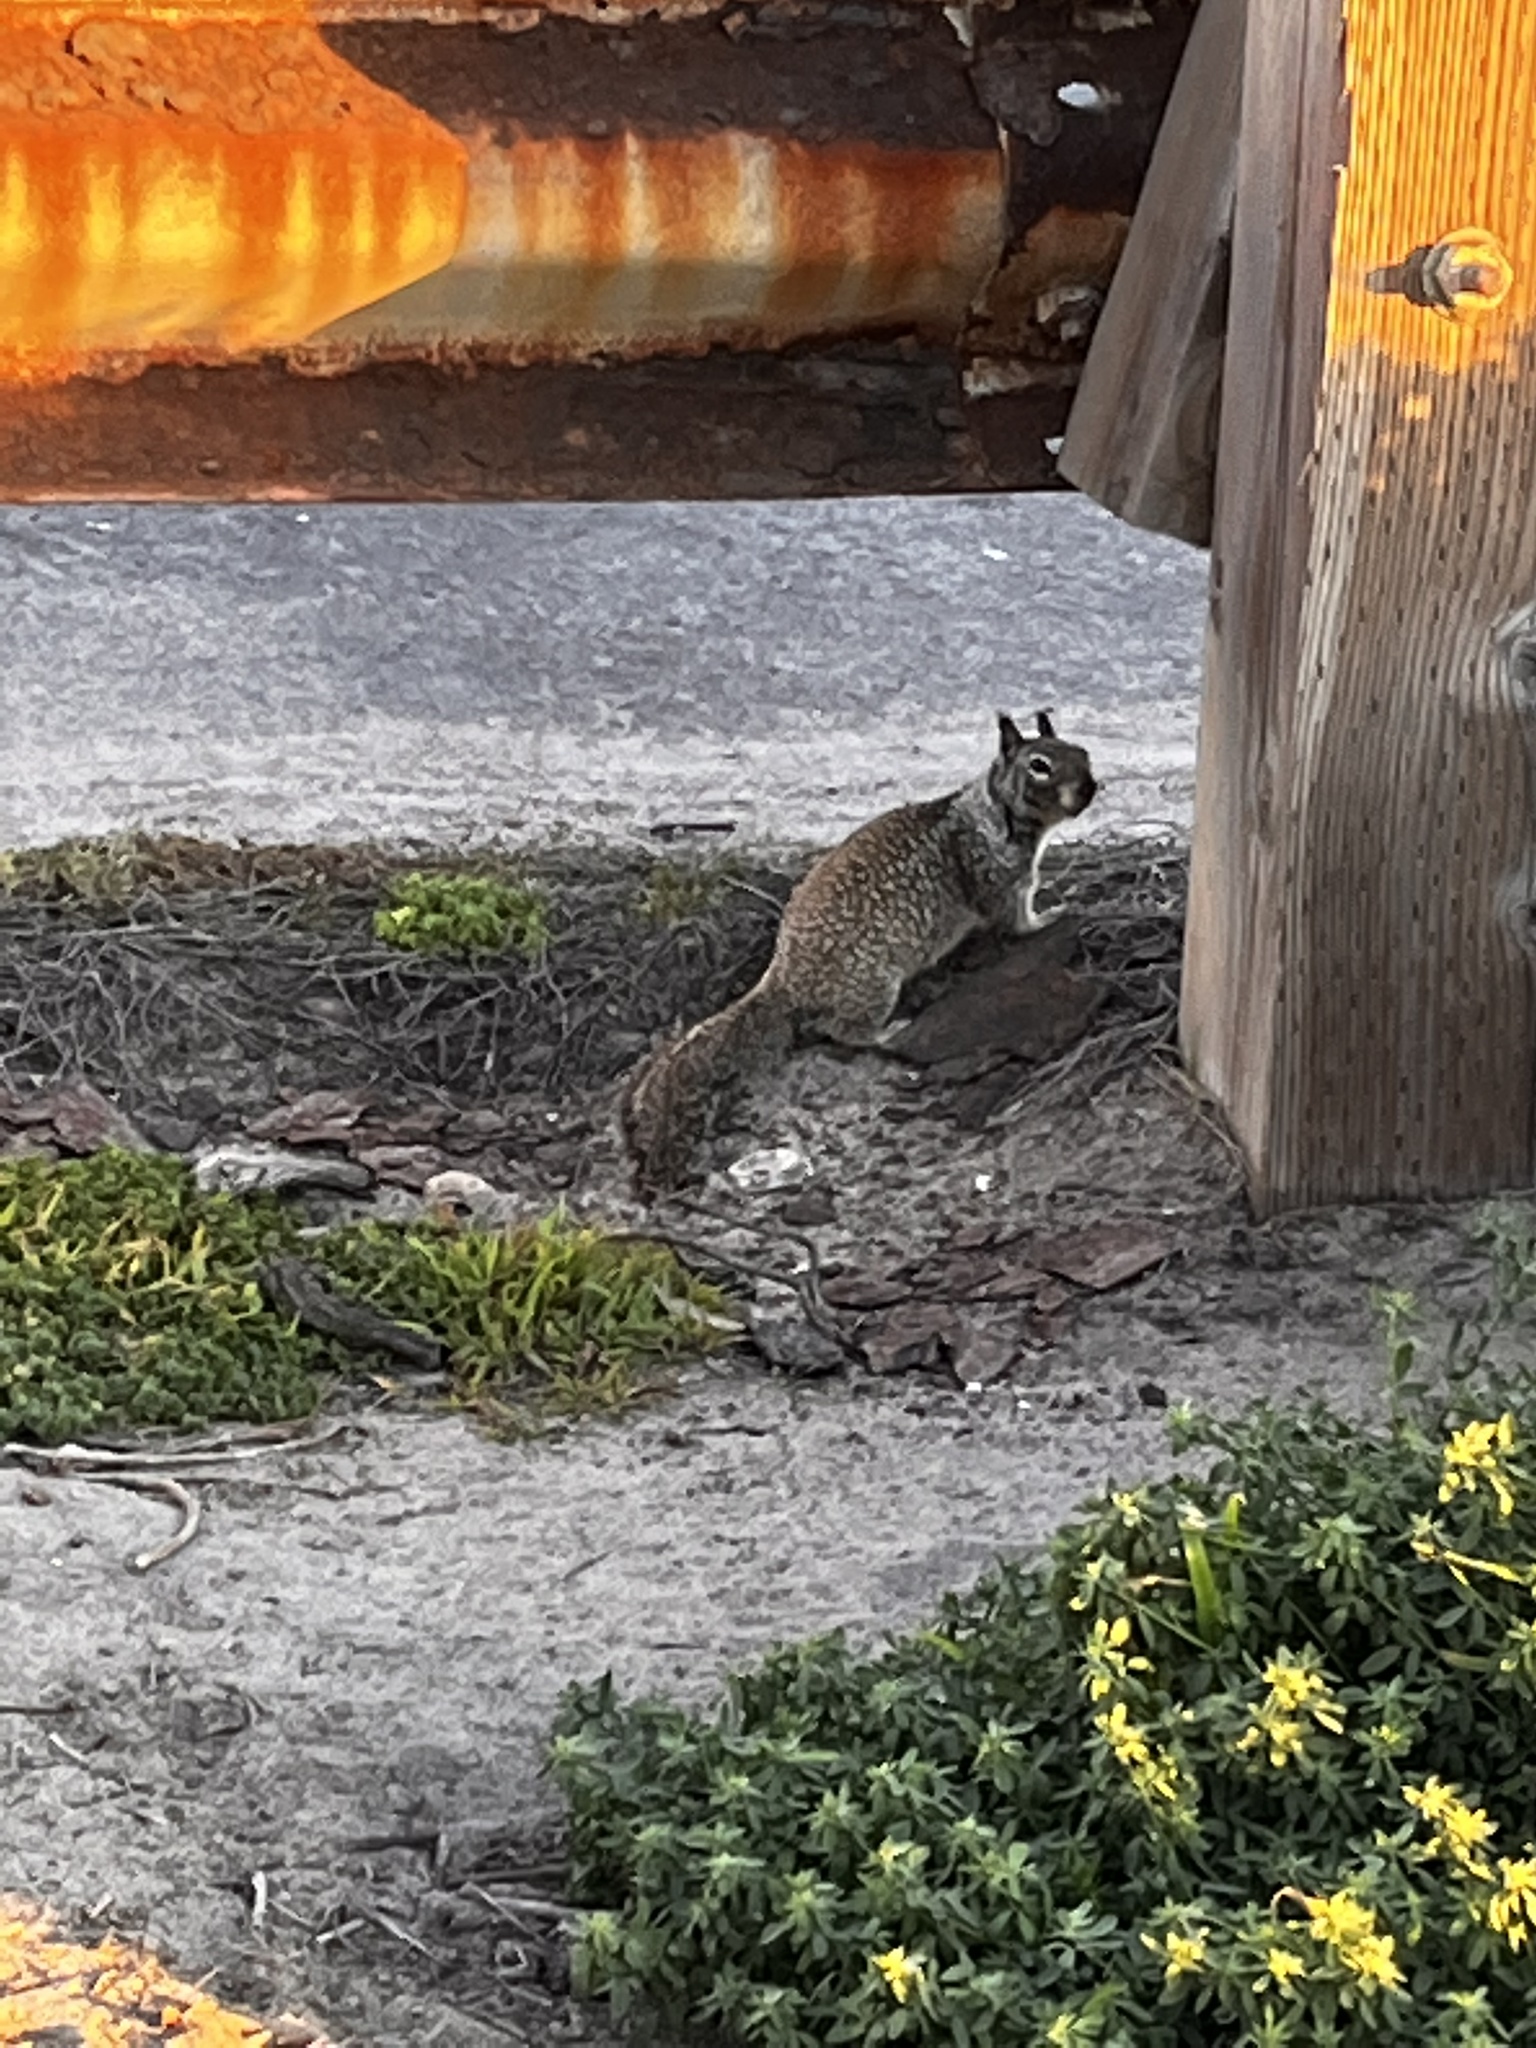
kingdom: Animalia
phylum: Chordata
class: Mammalia
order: Rodentia
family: Sciuridae
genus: Otospermophilus
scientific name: Otospermophilus beecheyi
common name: California ground squirrel
